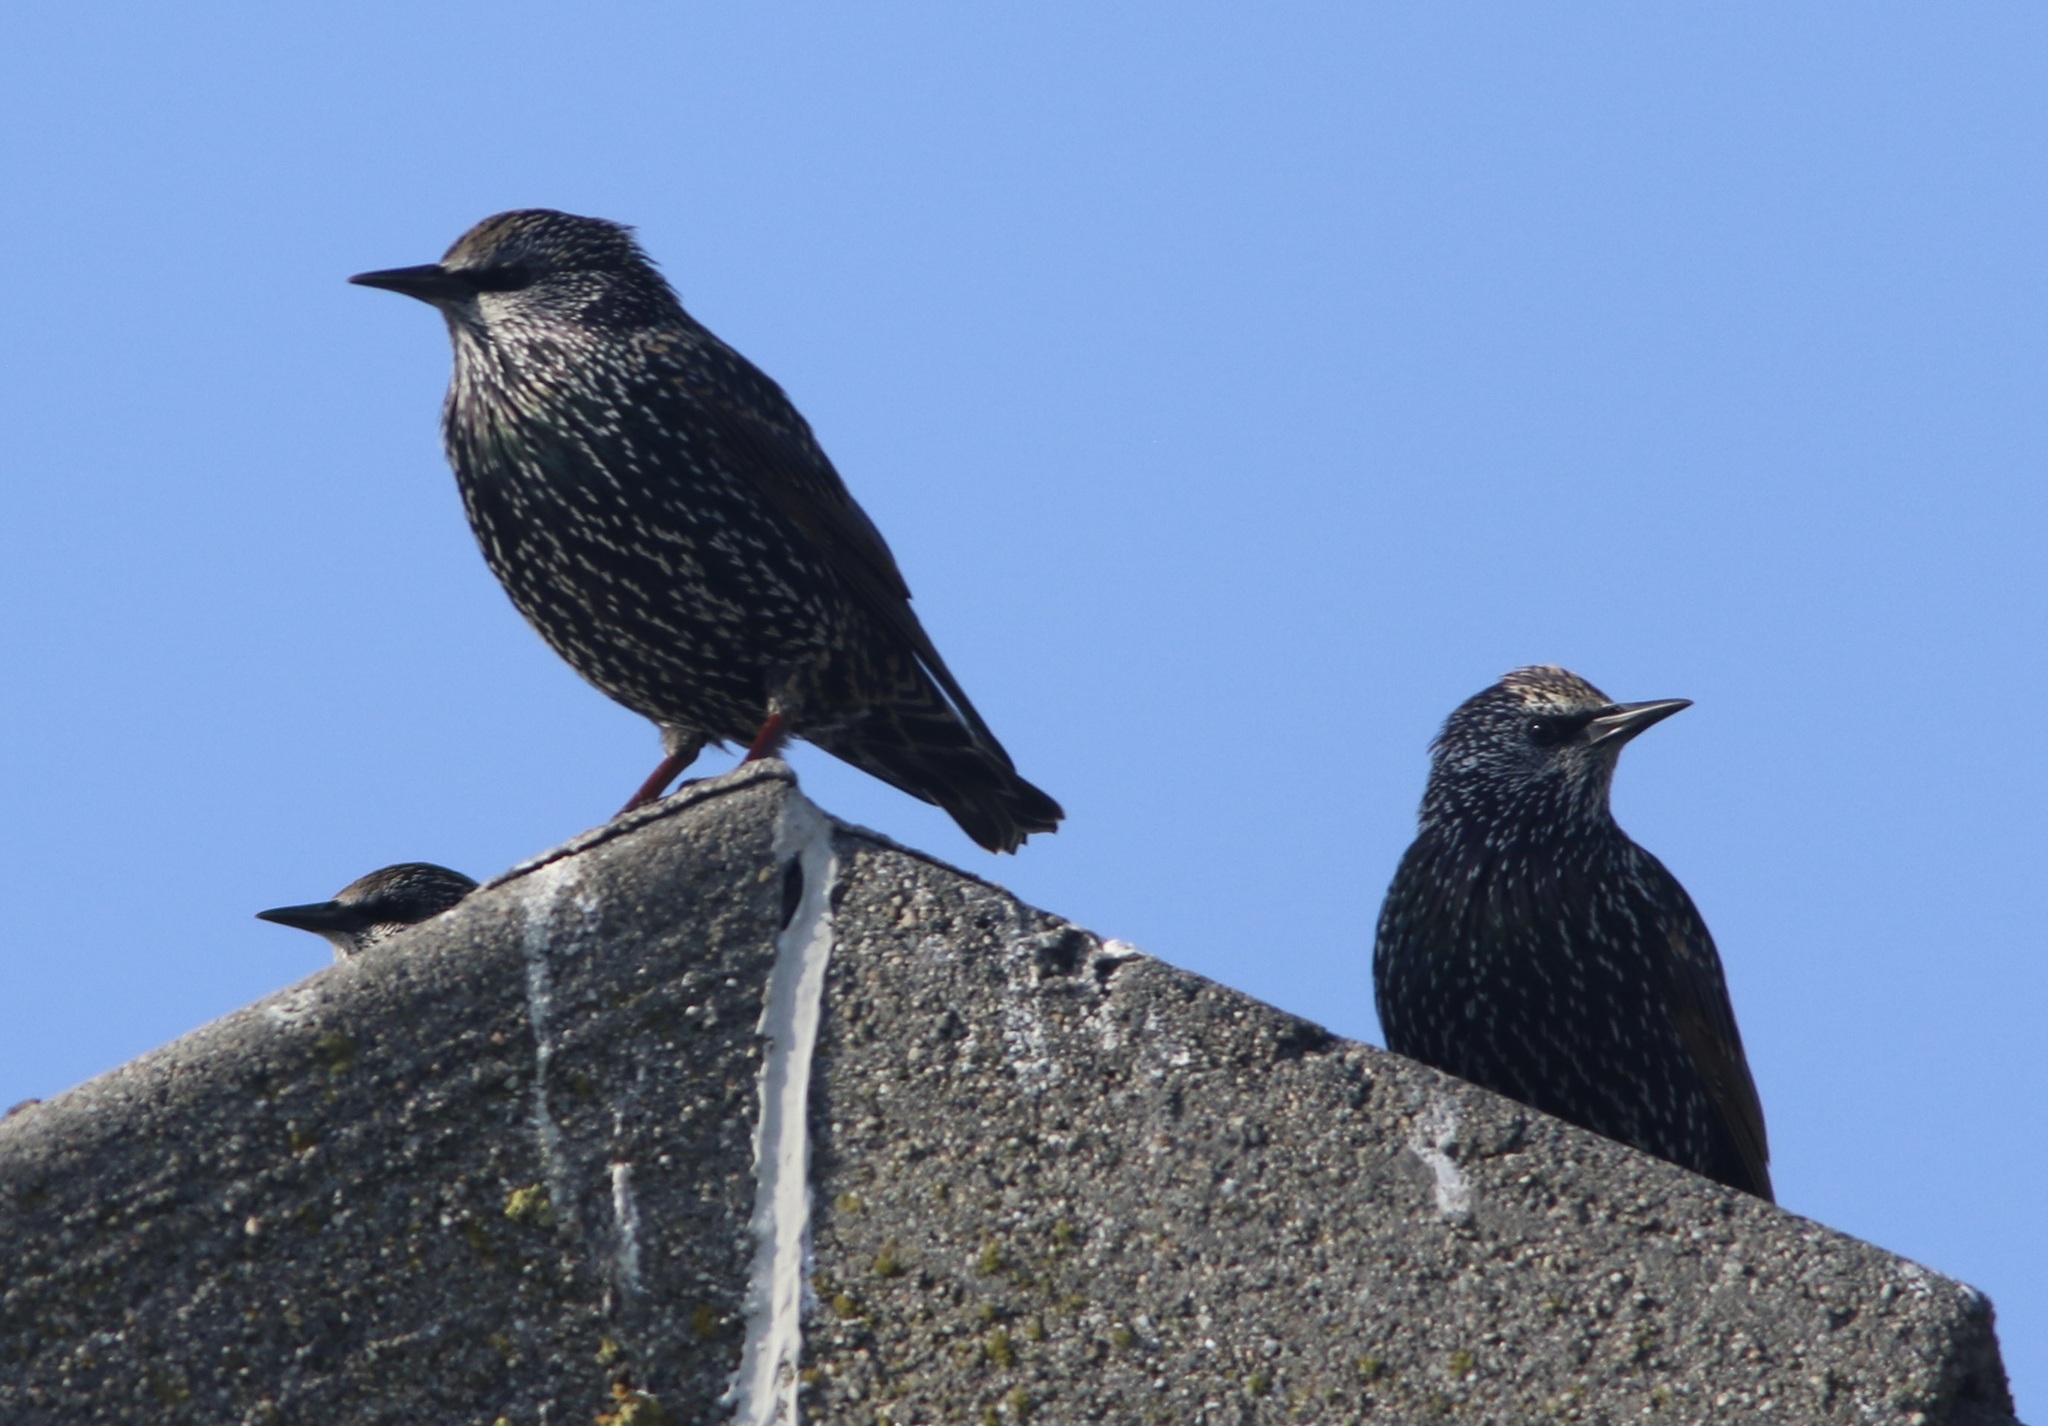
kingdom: Animalia
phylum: Chordata
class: Aves
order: Passeriformes
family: Sturnidae
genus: Sturnus
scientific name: Sturnus vulgaris
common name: Common starling
